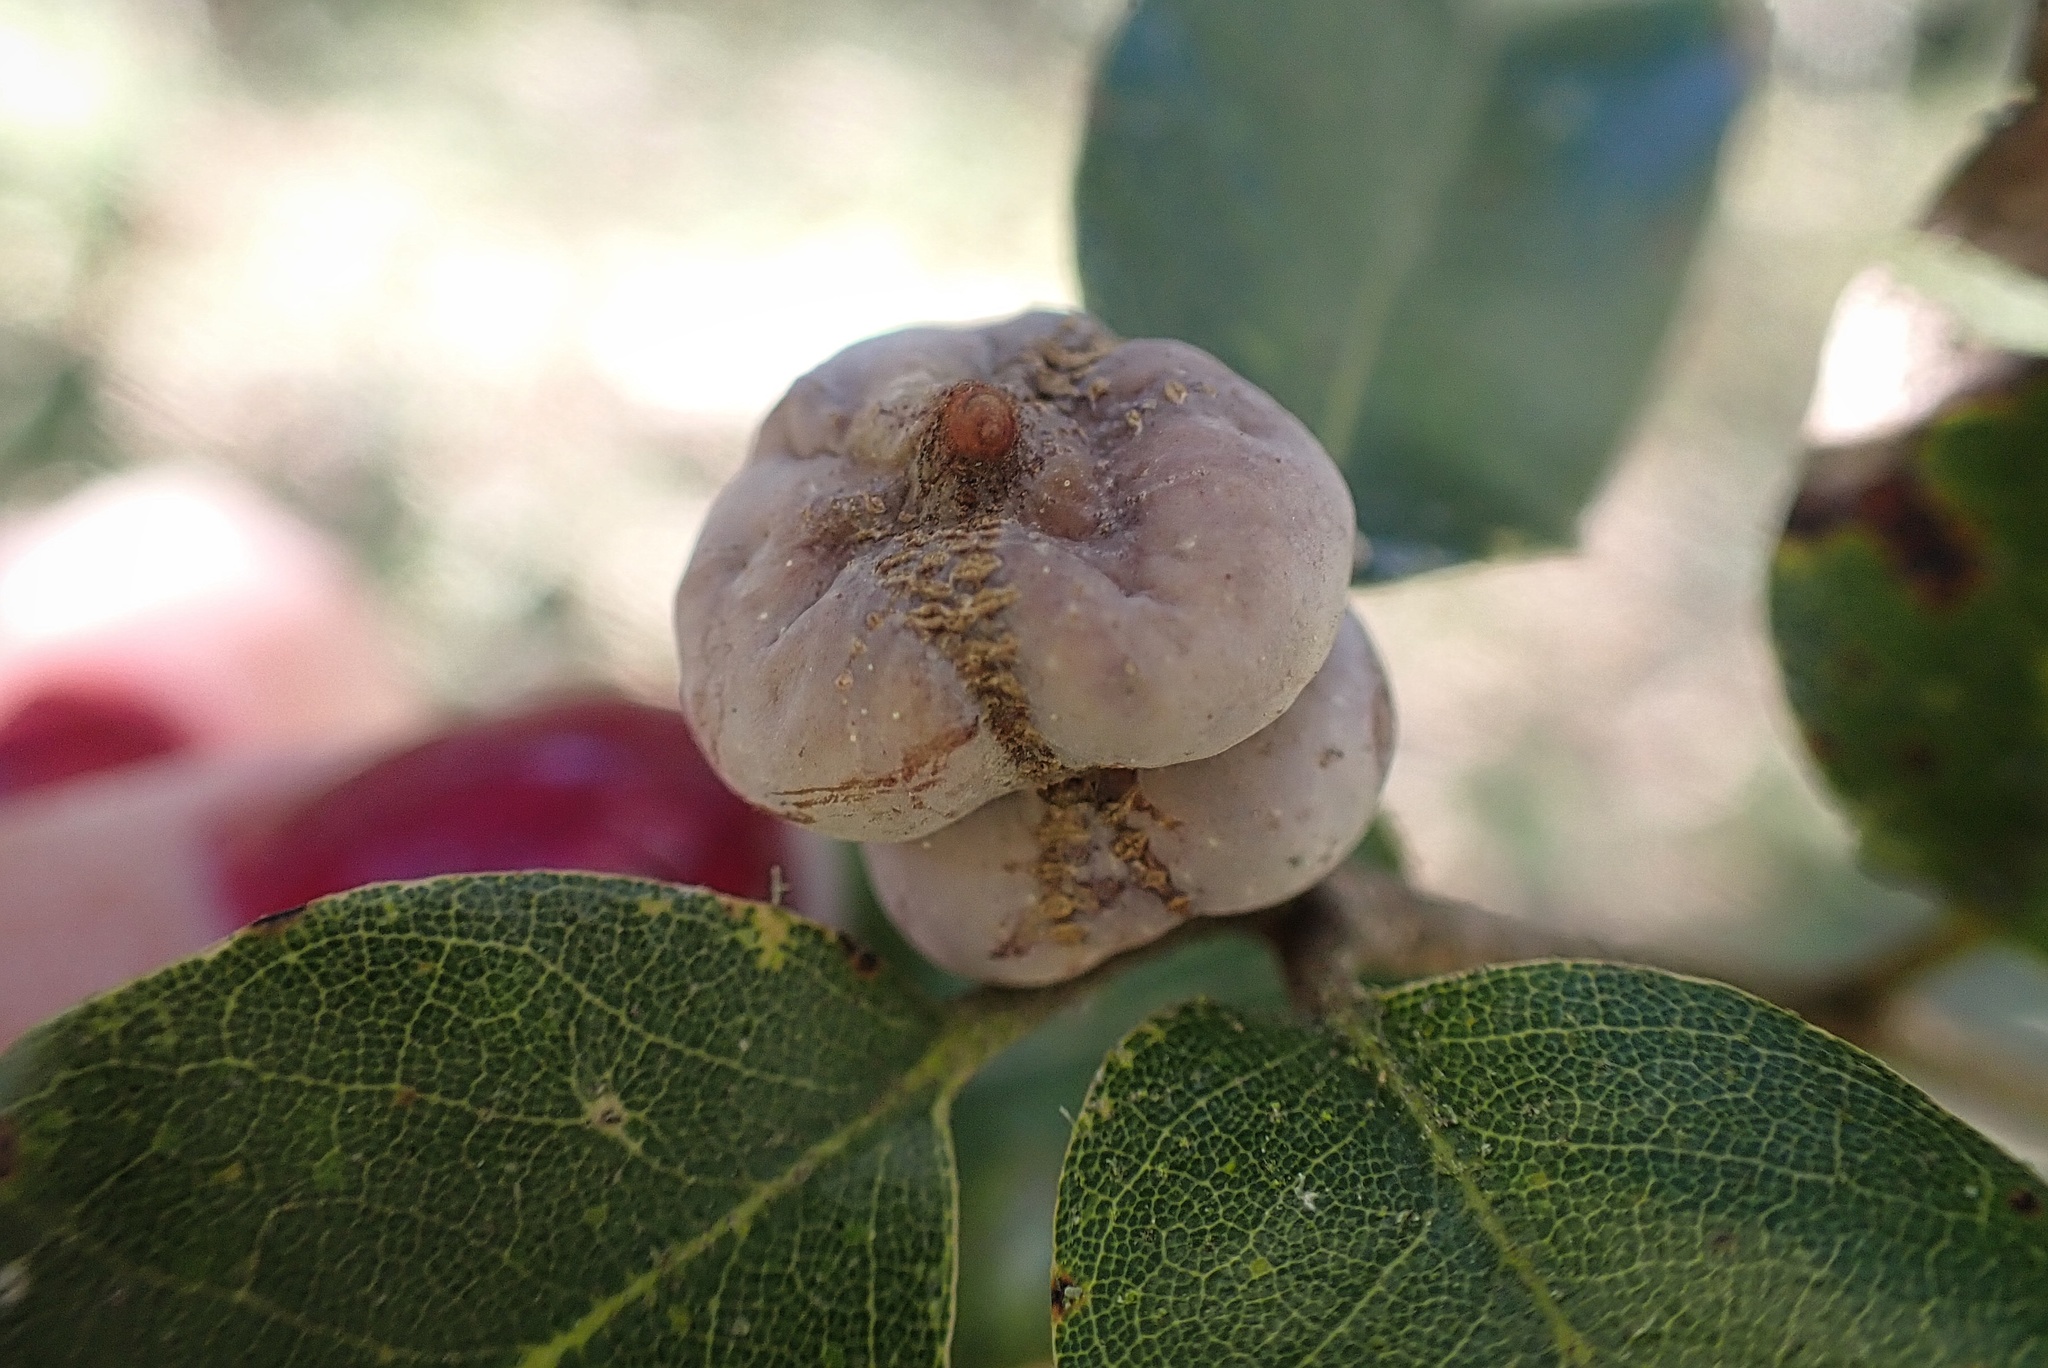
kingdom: Animalia
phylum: Arthropoda
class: Insecta
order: Hymenoptera
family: Cynipidae
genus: Heteroecus
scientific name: Heteroecus
